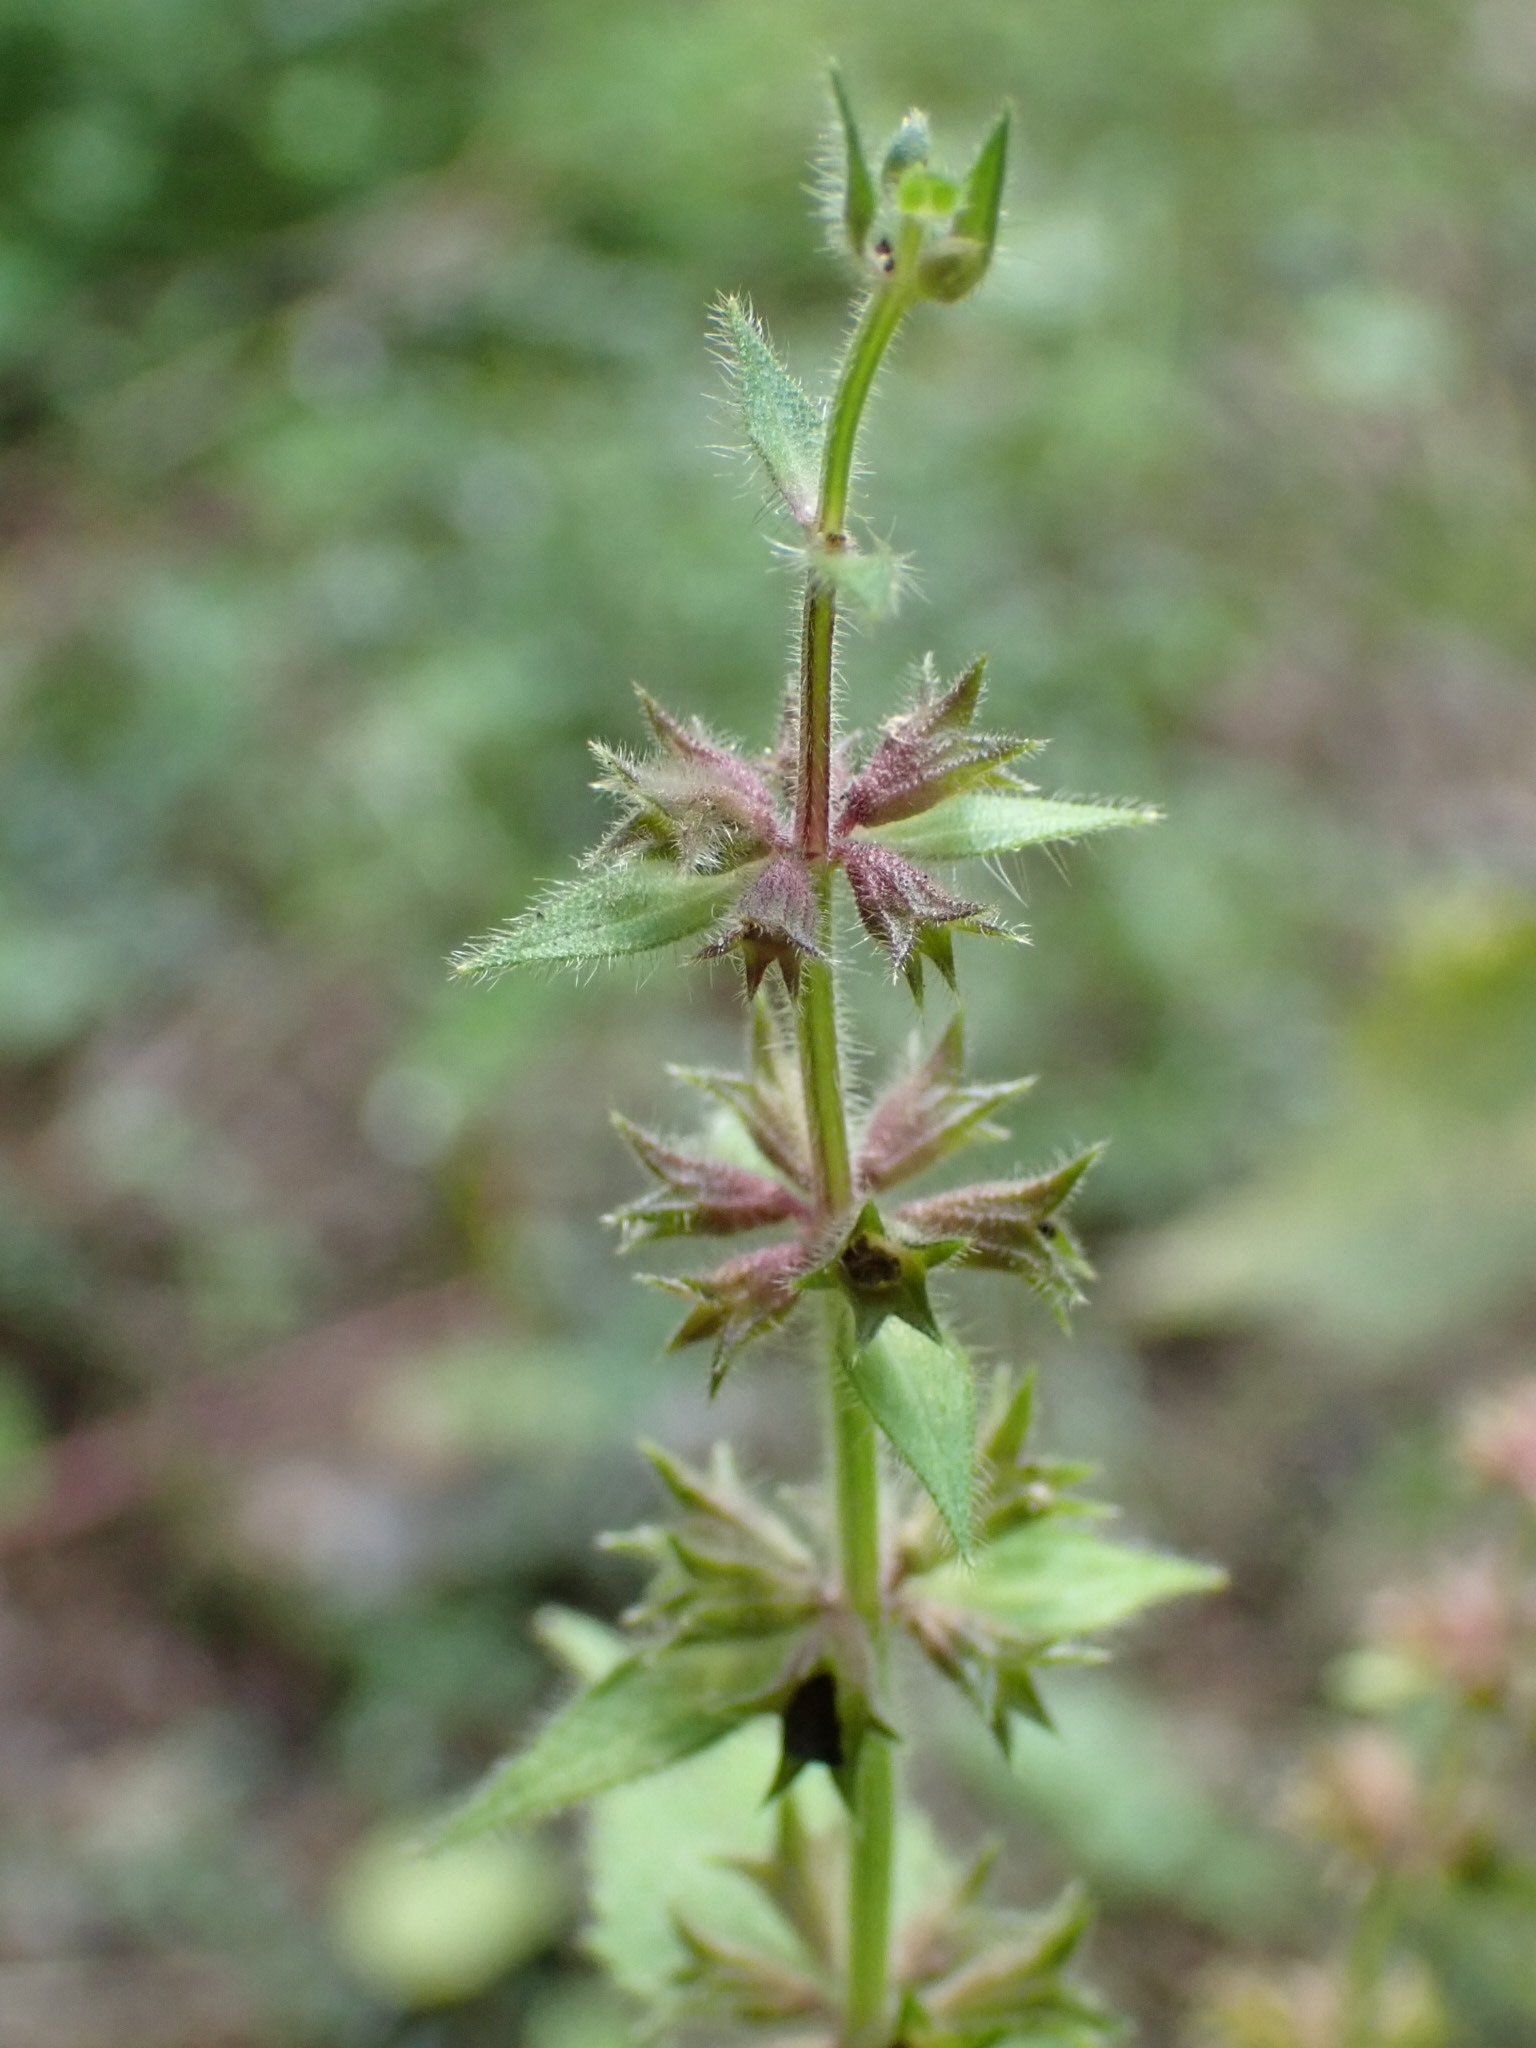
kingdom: Plantae
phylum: Tracheophyta
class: Magnoliopsida
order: Lamiales
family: Lamiaceae
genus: Stachys
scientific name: Stachys sylvatica
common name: Hedge woundwort
